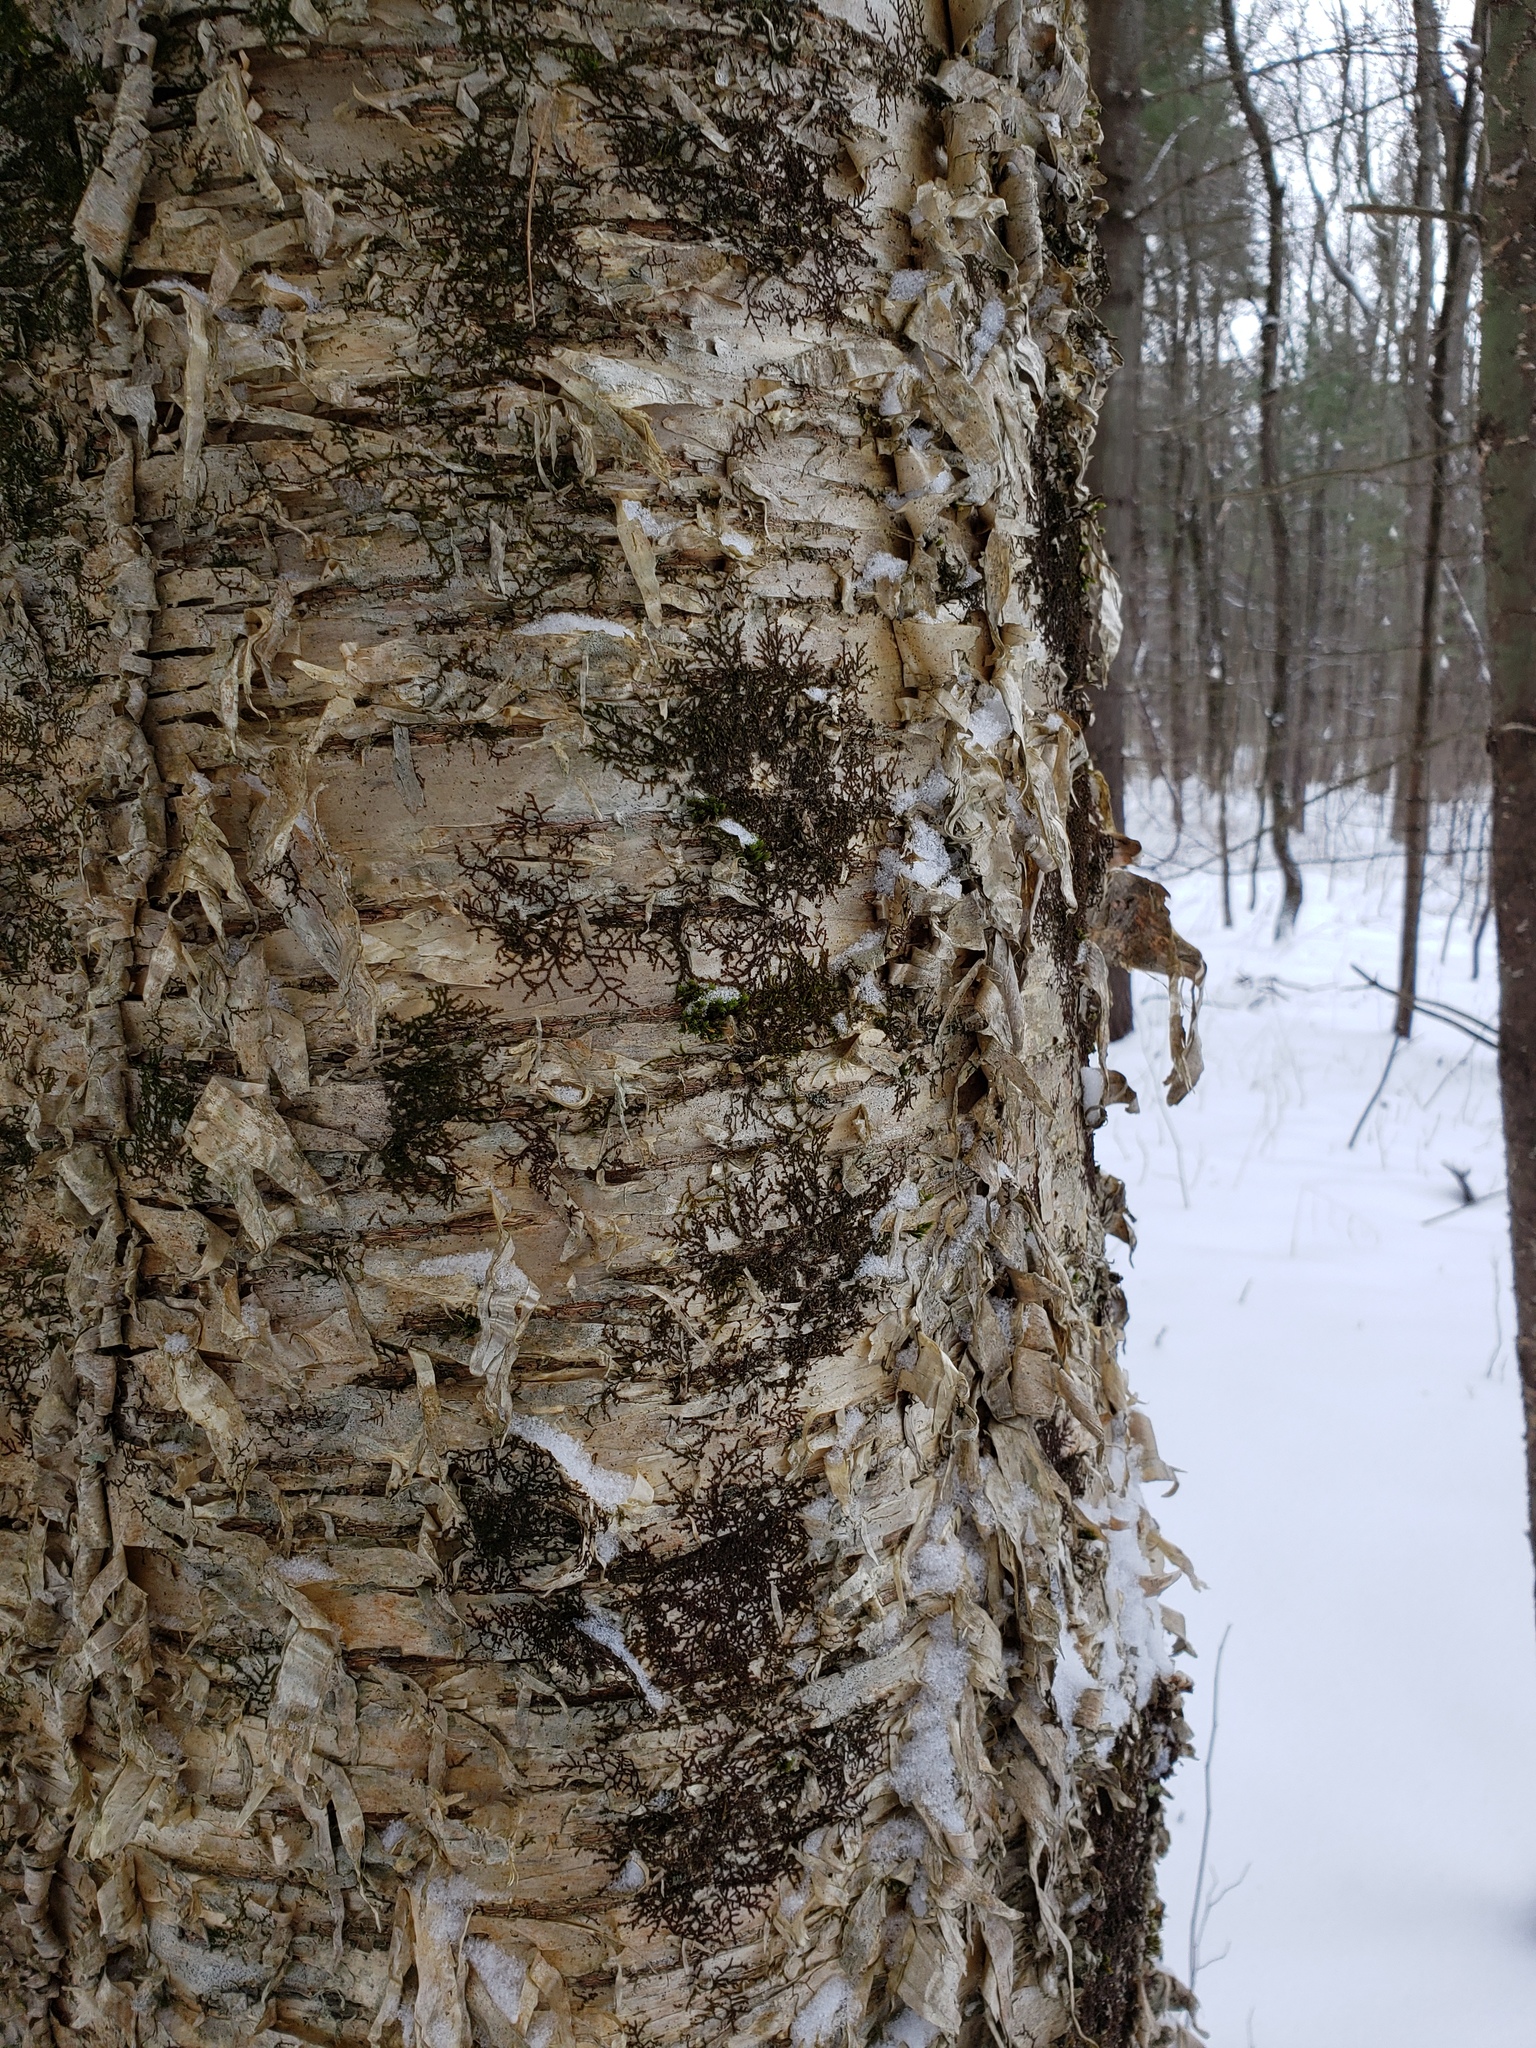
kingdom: Plantae
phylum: Tracheophyta
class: Magnoliopsida
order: Fagales
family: Betulaceae
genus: Betula
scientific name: Betula alleghaniensis
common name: Yellow birch
